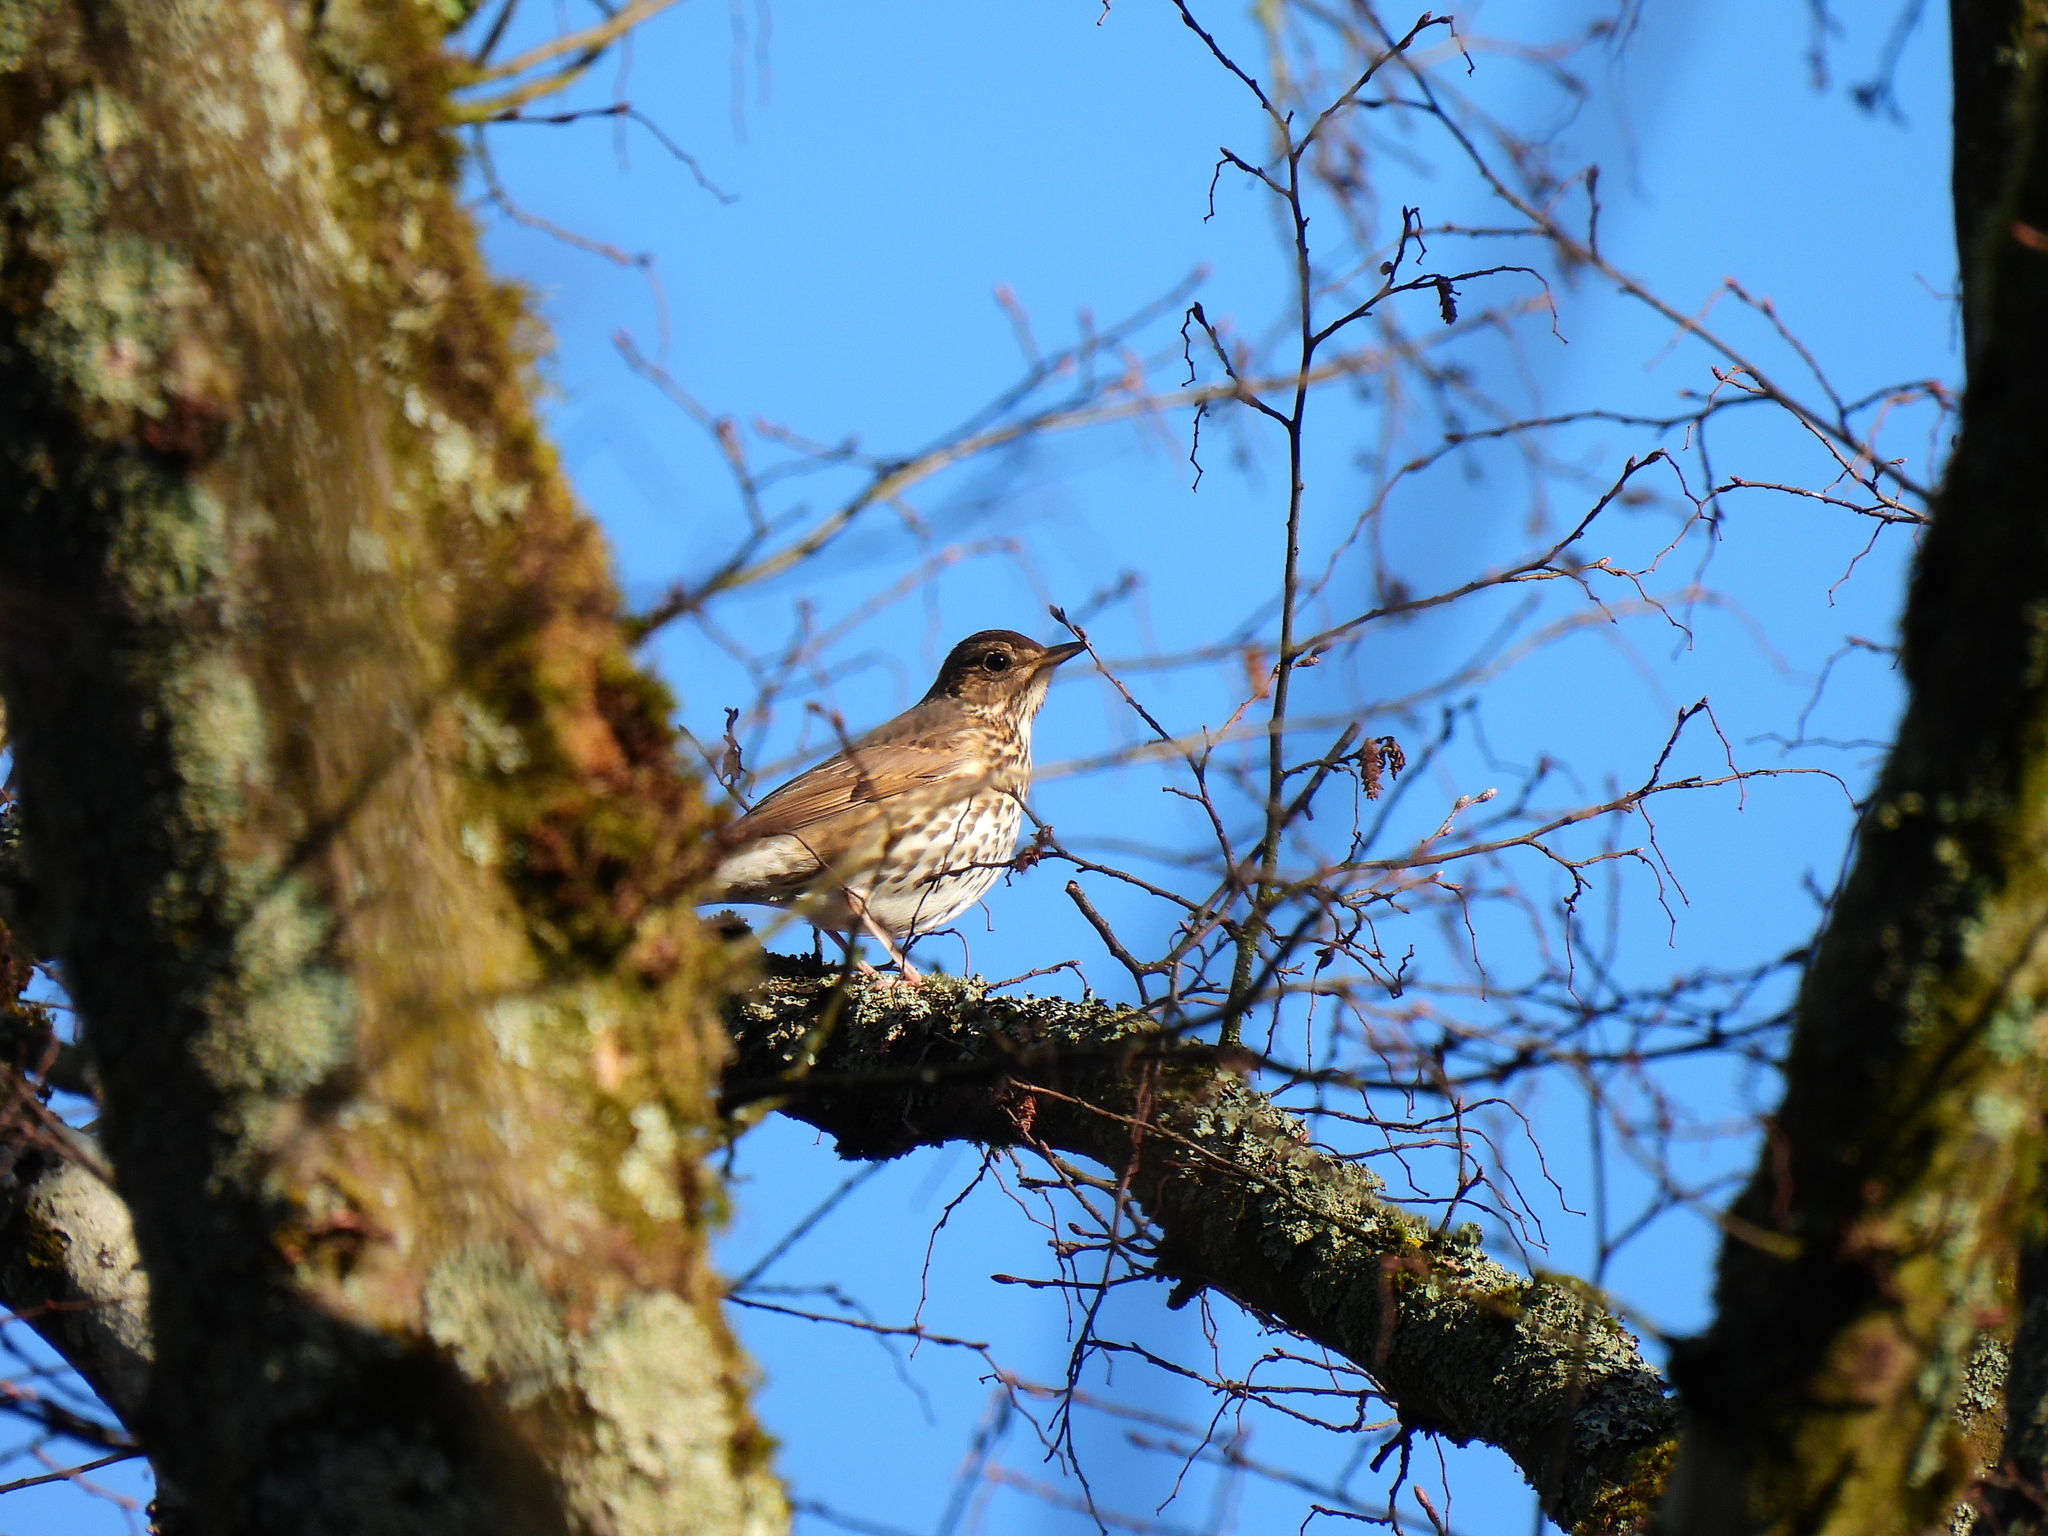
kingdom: Animalia
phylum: Chordata
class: Aves
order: Passeriformes
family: Turdidae
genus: Turdus
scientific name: Turdus philomelos
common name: Song thrush
